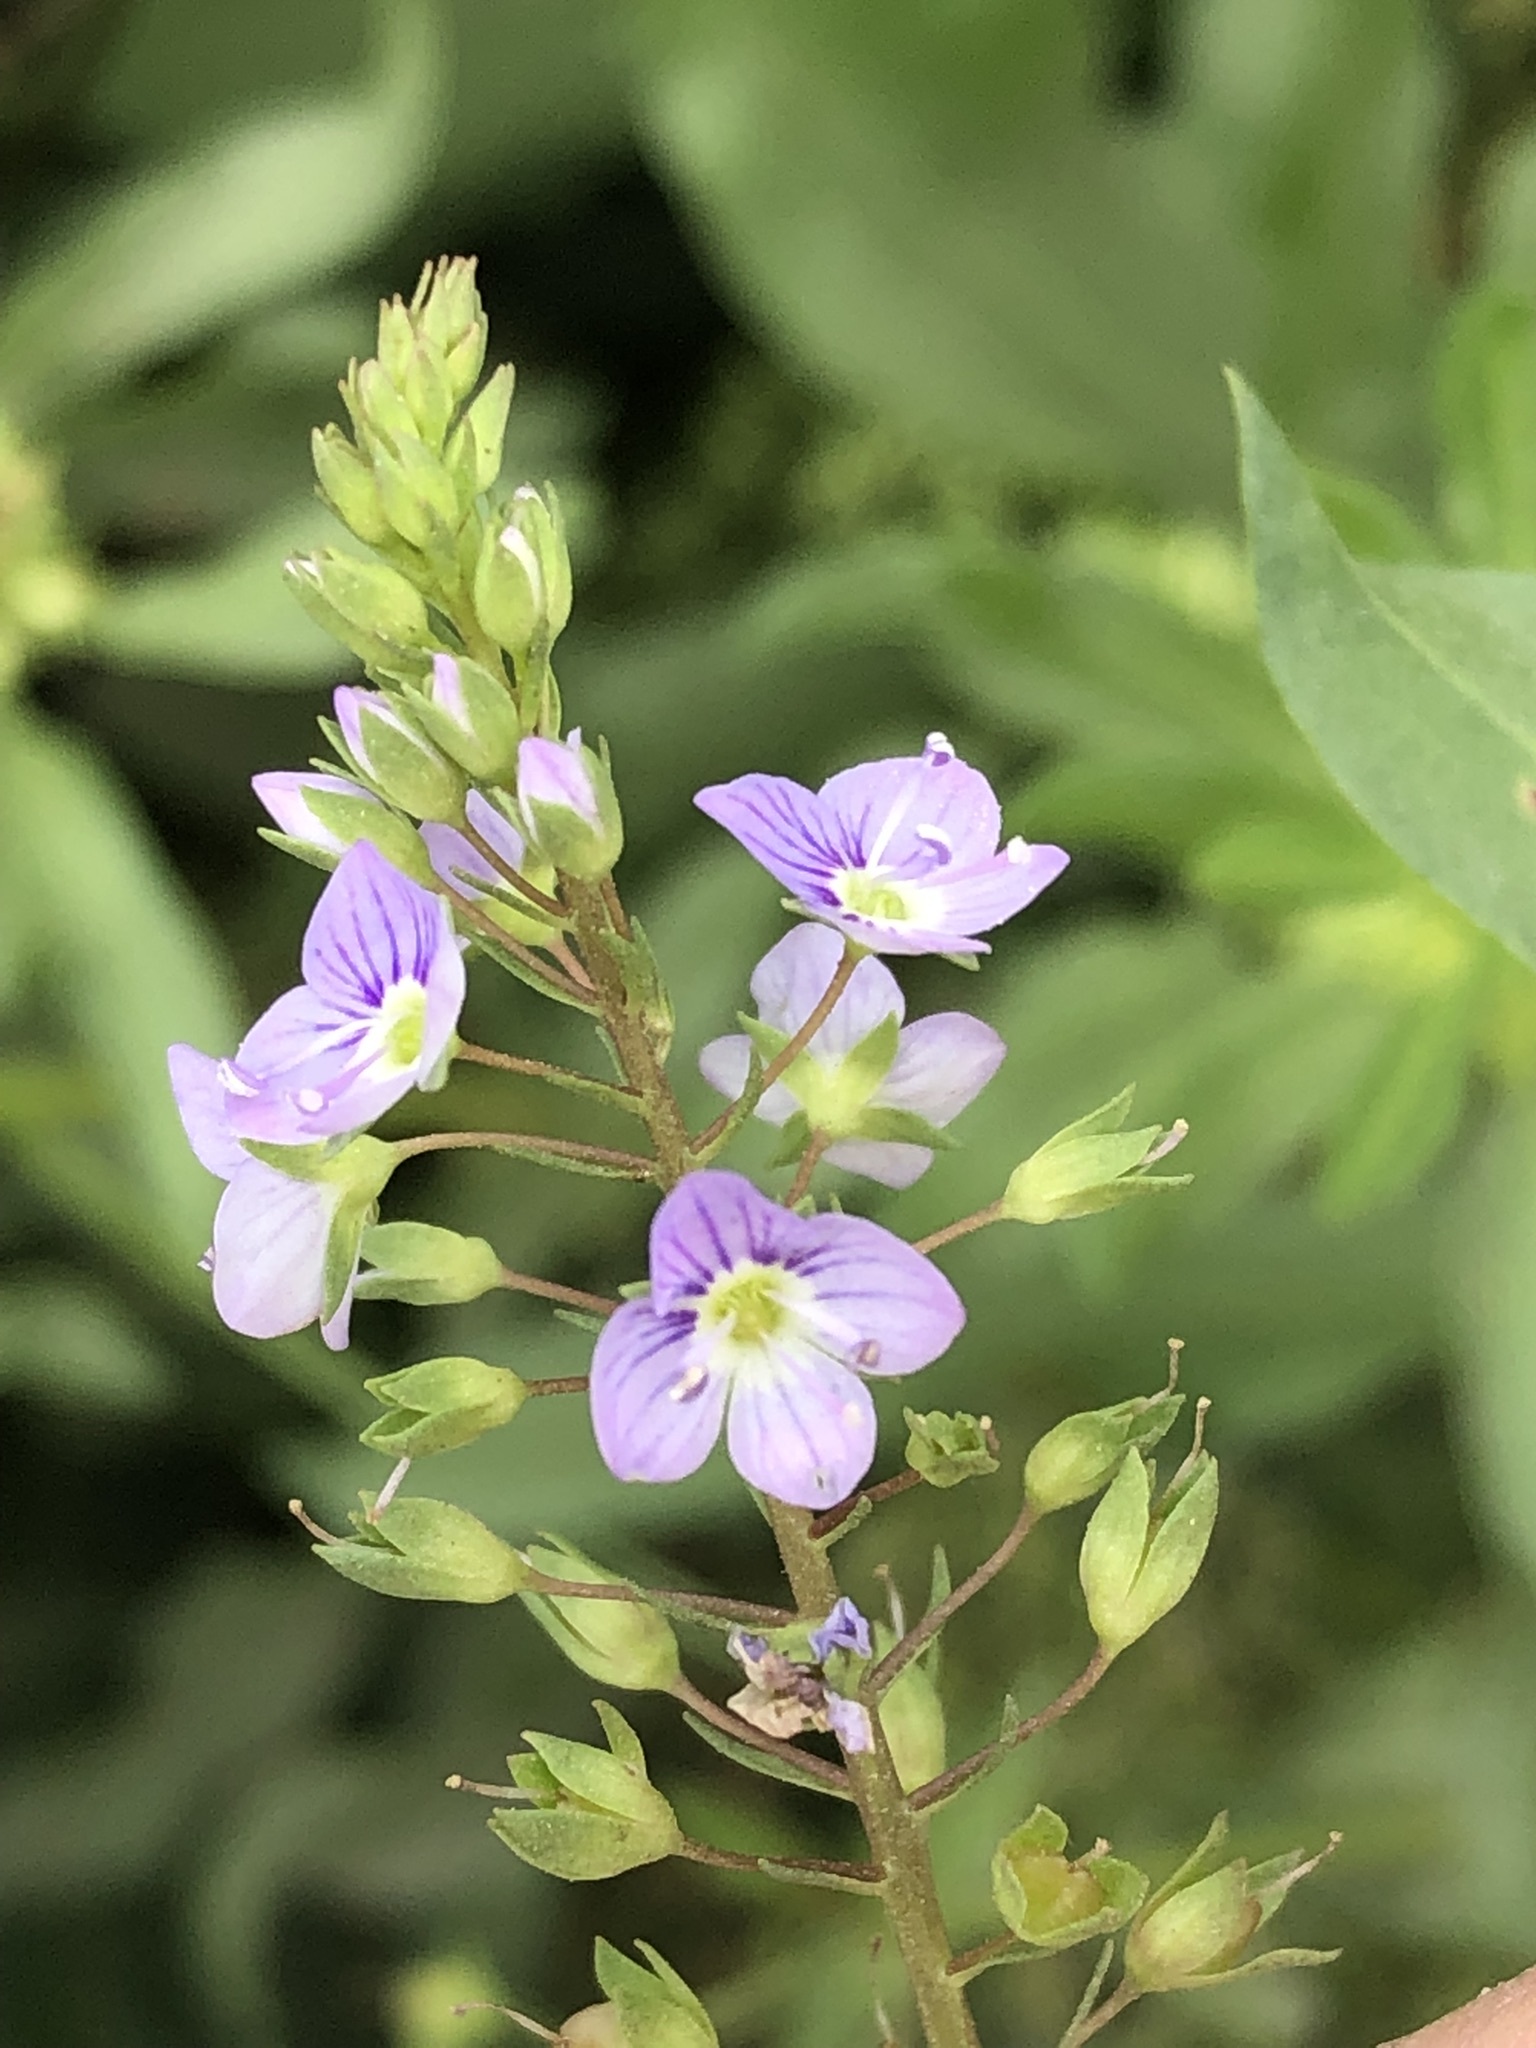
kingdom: Plantae
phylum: Tracheophyta
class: Magnoliopsida
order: Lamiales
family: Plantaginaceae
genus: Veronica
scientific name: Veronica anagallis-aquatica
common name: Water speedwell
